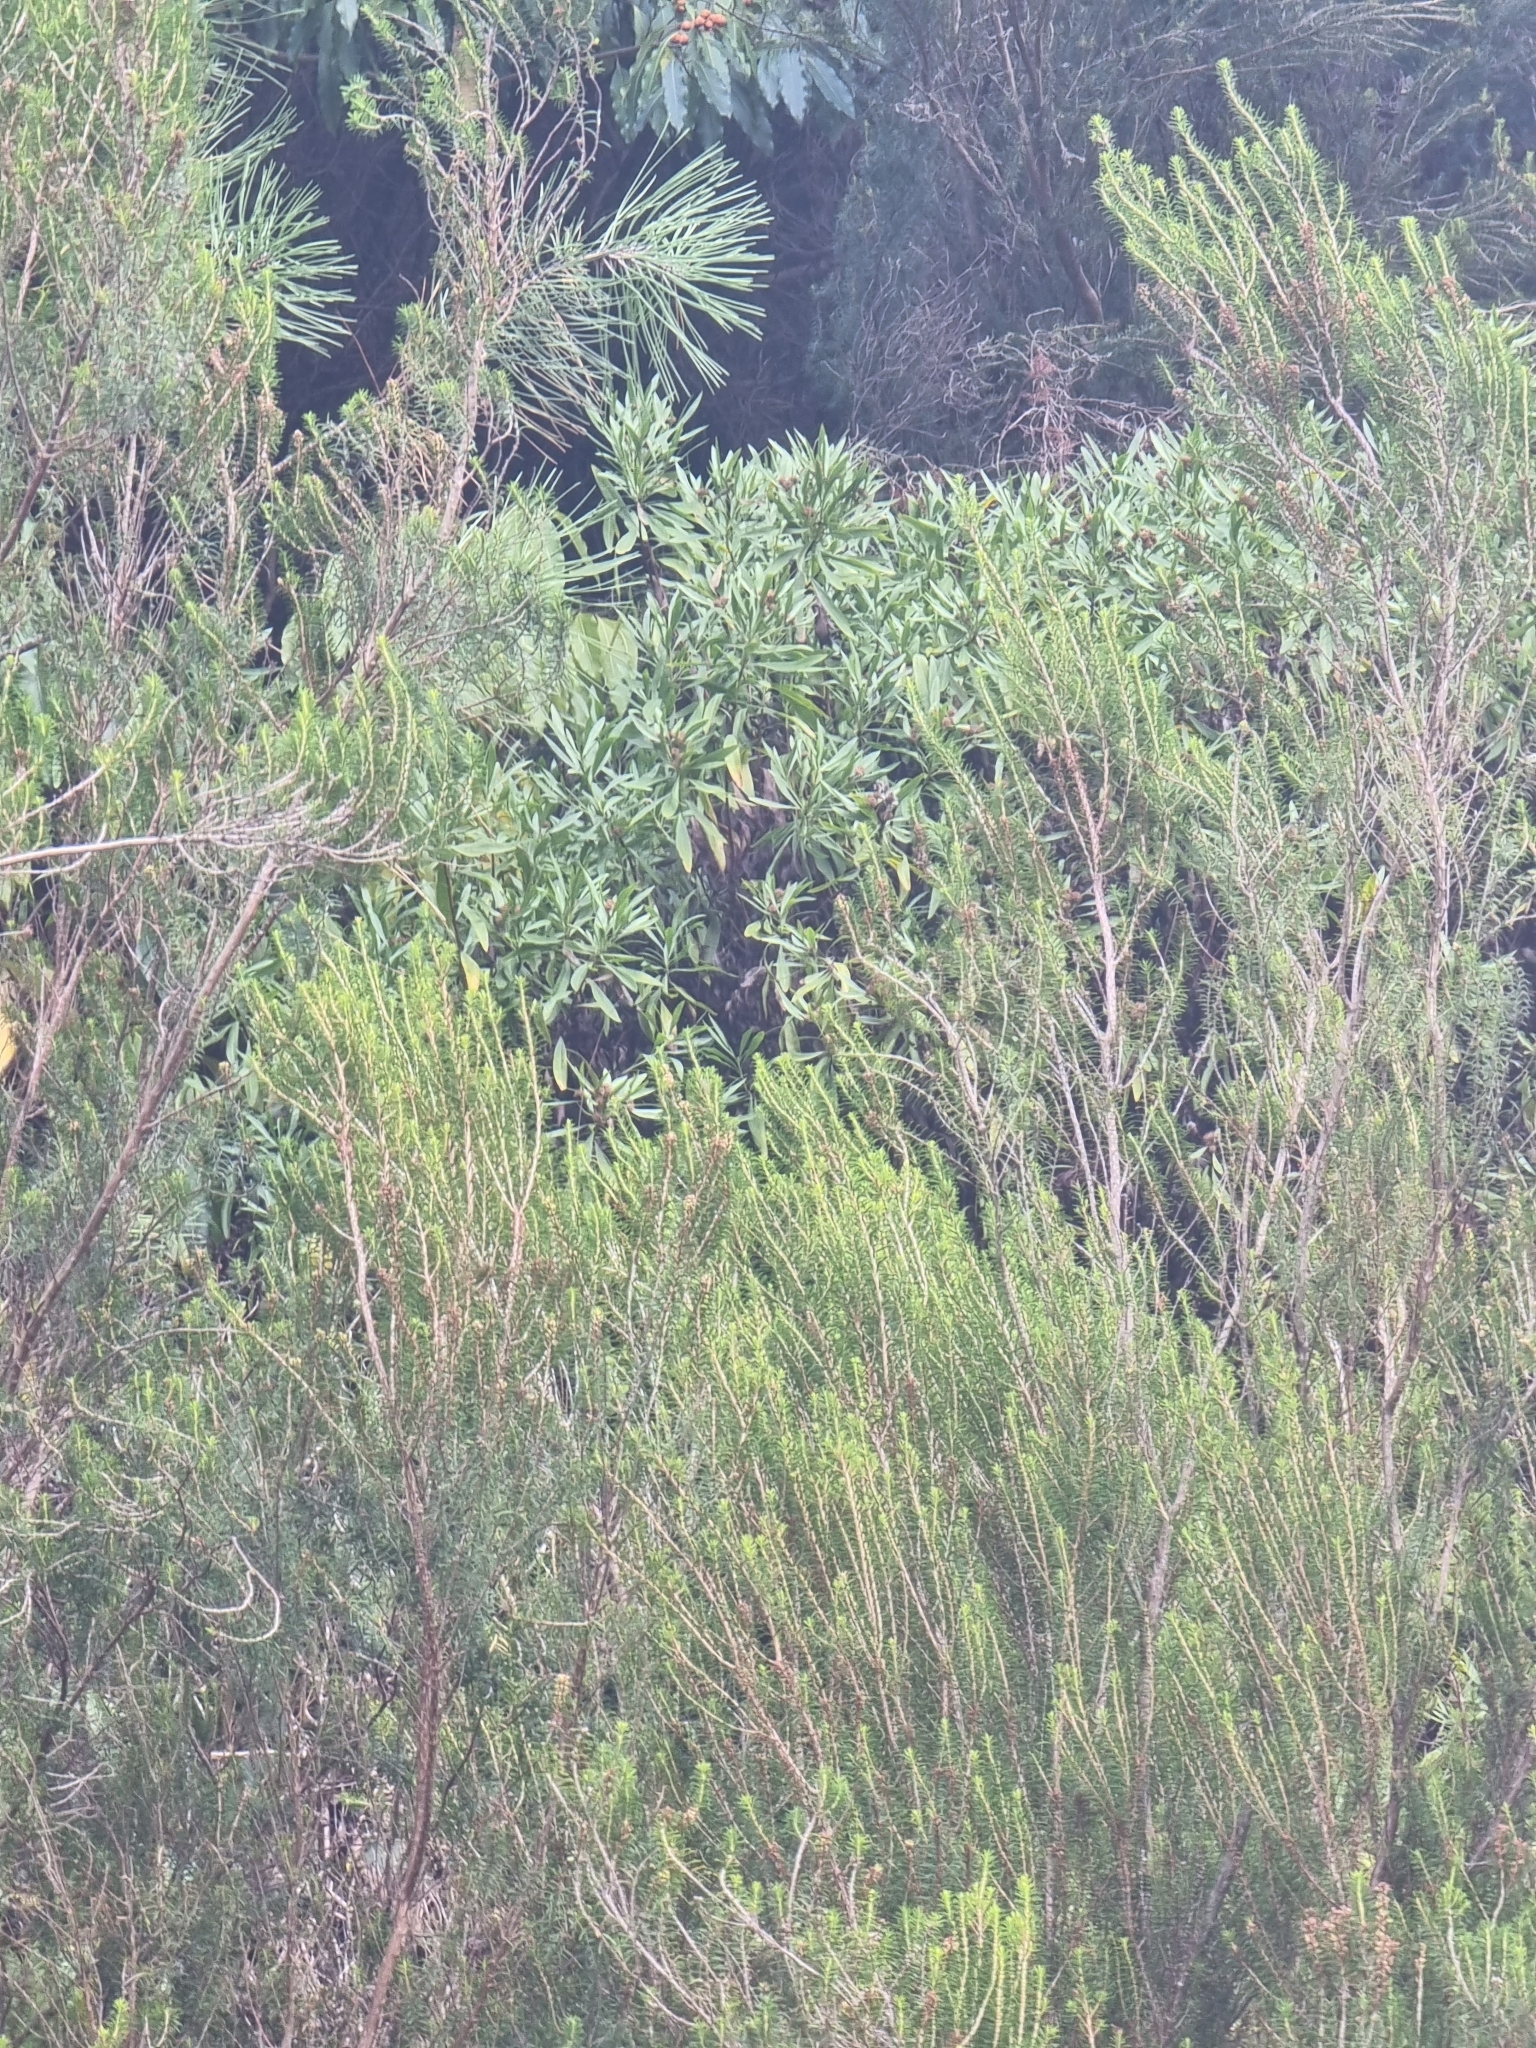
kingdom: Plantae
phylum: Tracheophyta
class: Magnoliopsida
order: Lamiales
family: Plantaginaceae
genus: Globularia
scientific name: Globularia salicina
